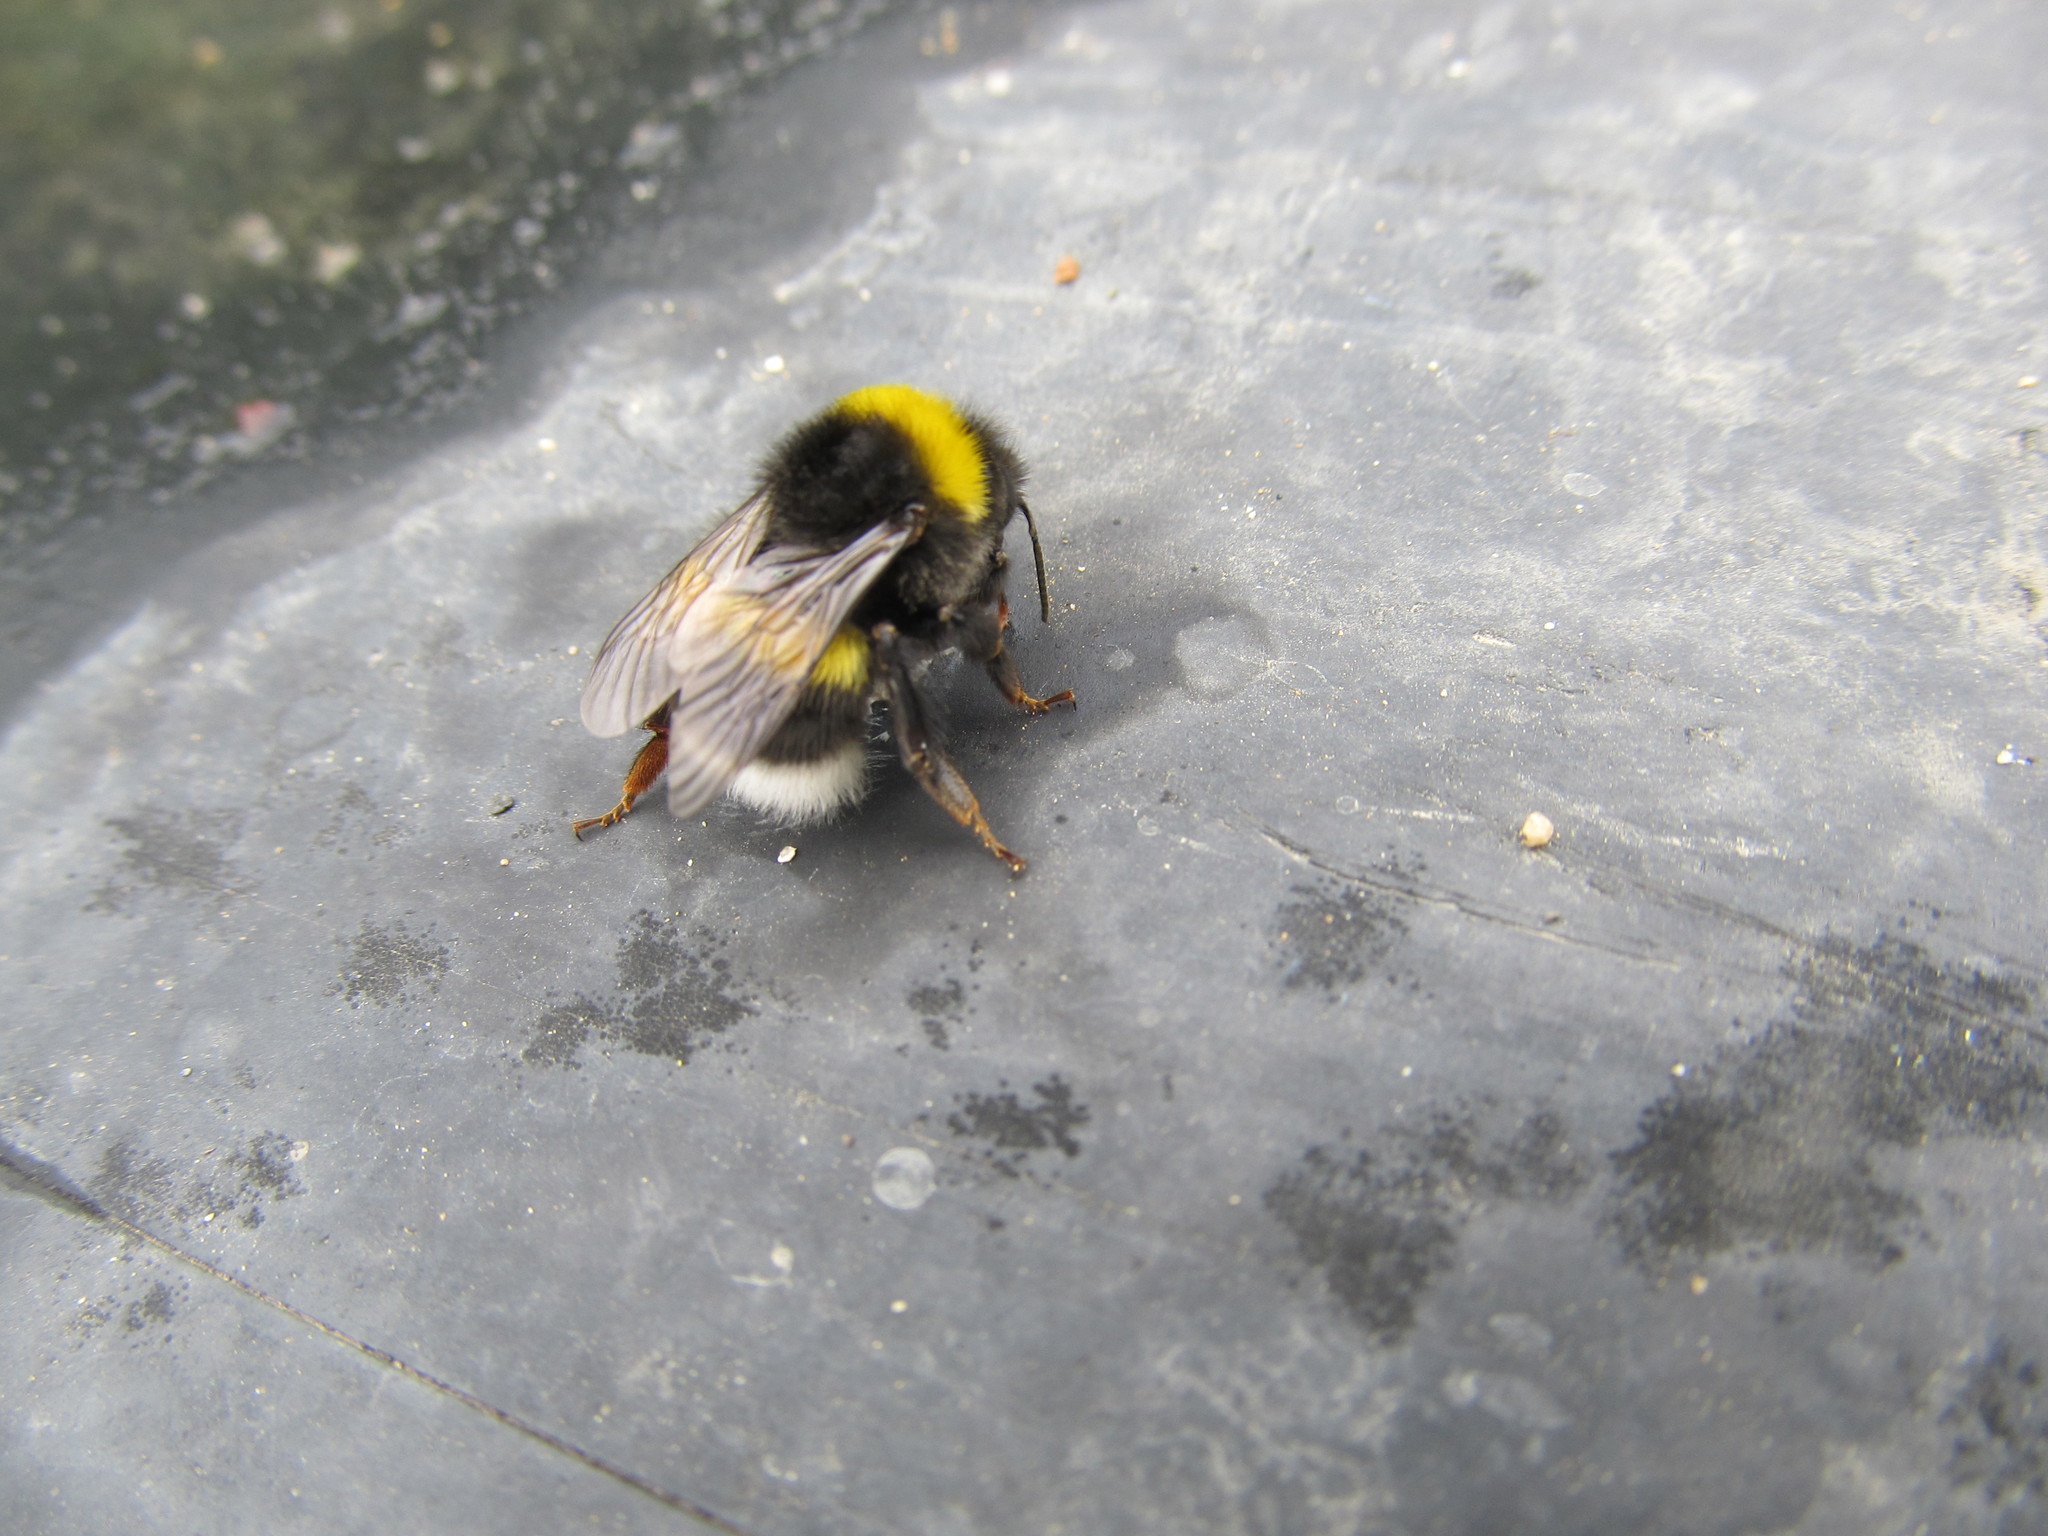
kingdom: Animalia
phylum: Arthropoda
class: Insecta
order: Hymenoptera
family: Apidae
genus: Bombus
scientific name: Bombus lucorum
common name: White-tailed bumblebee
